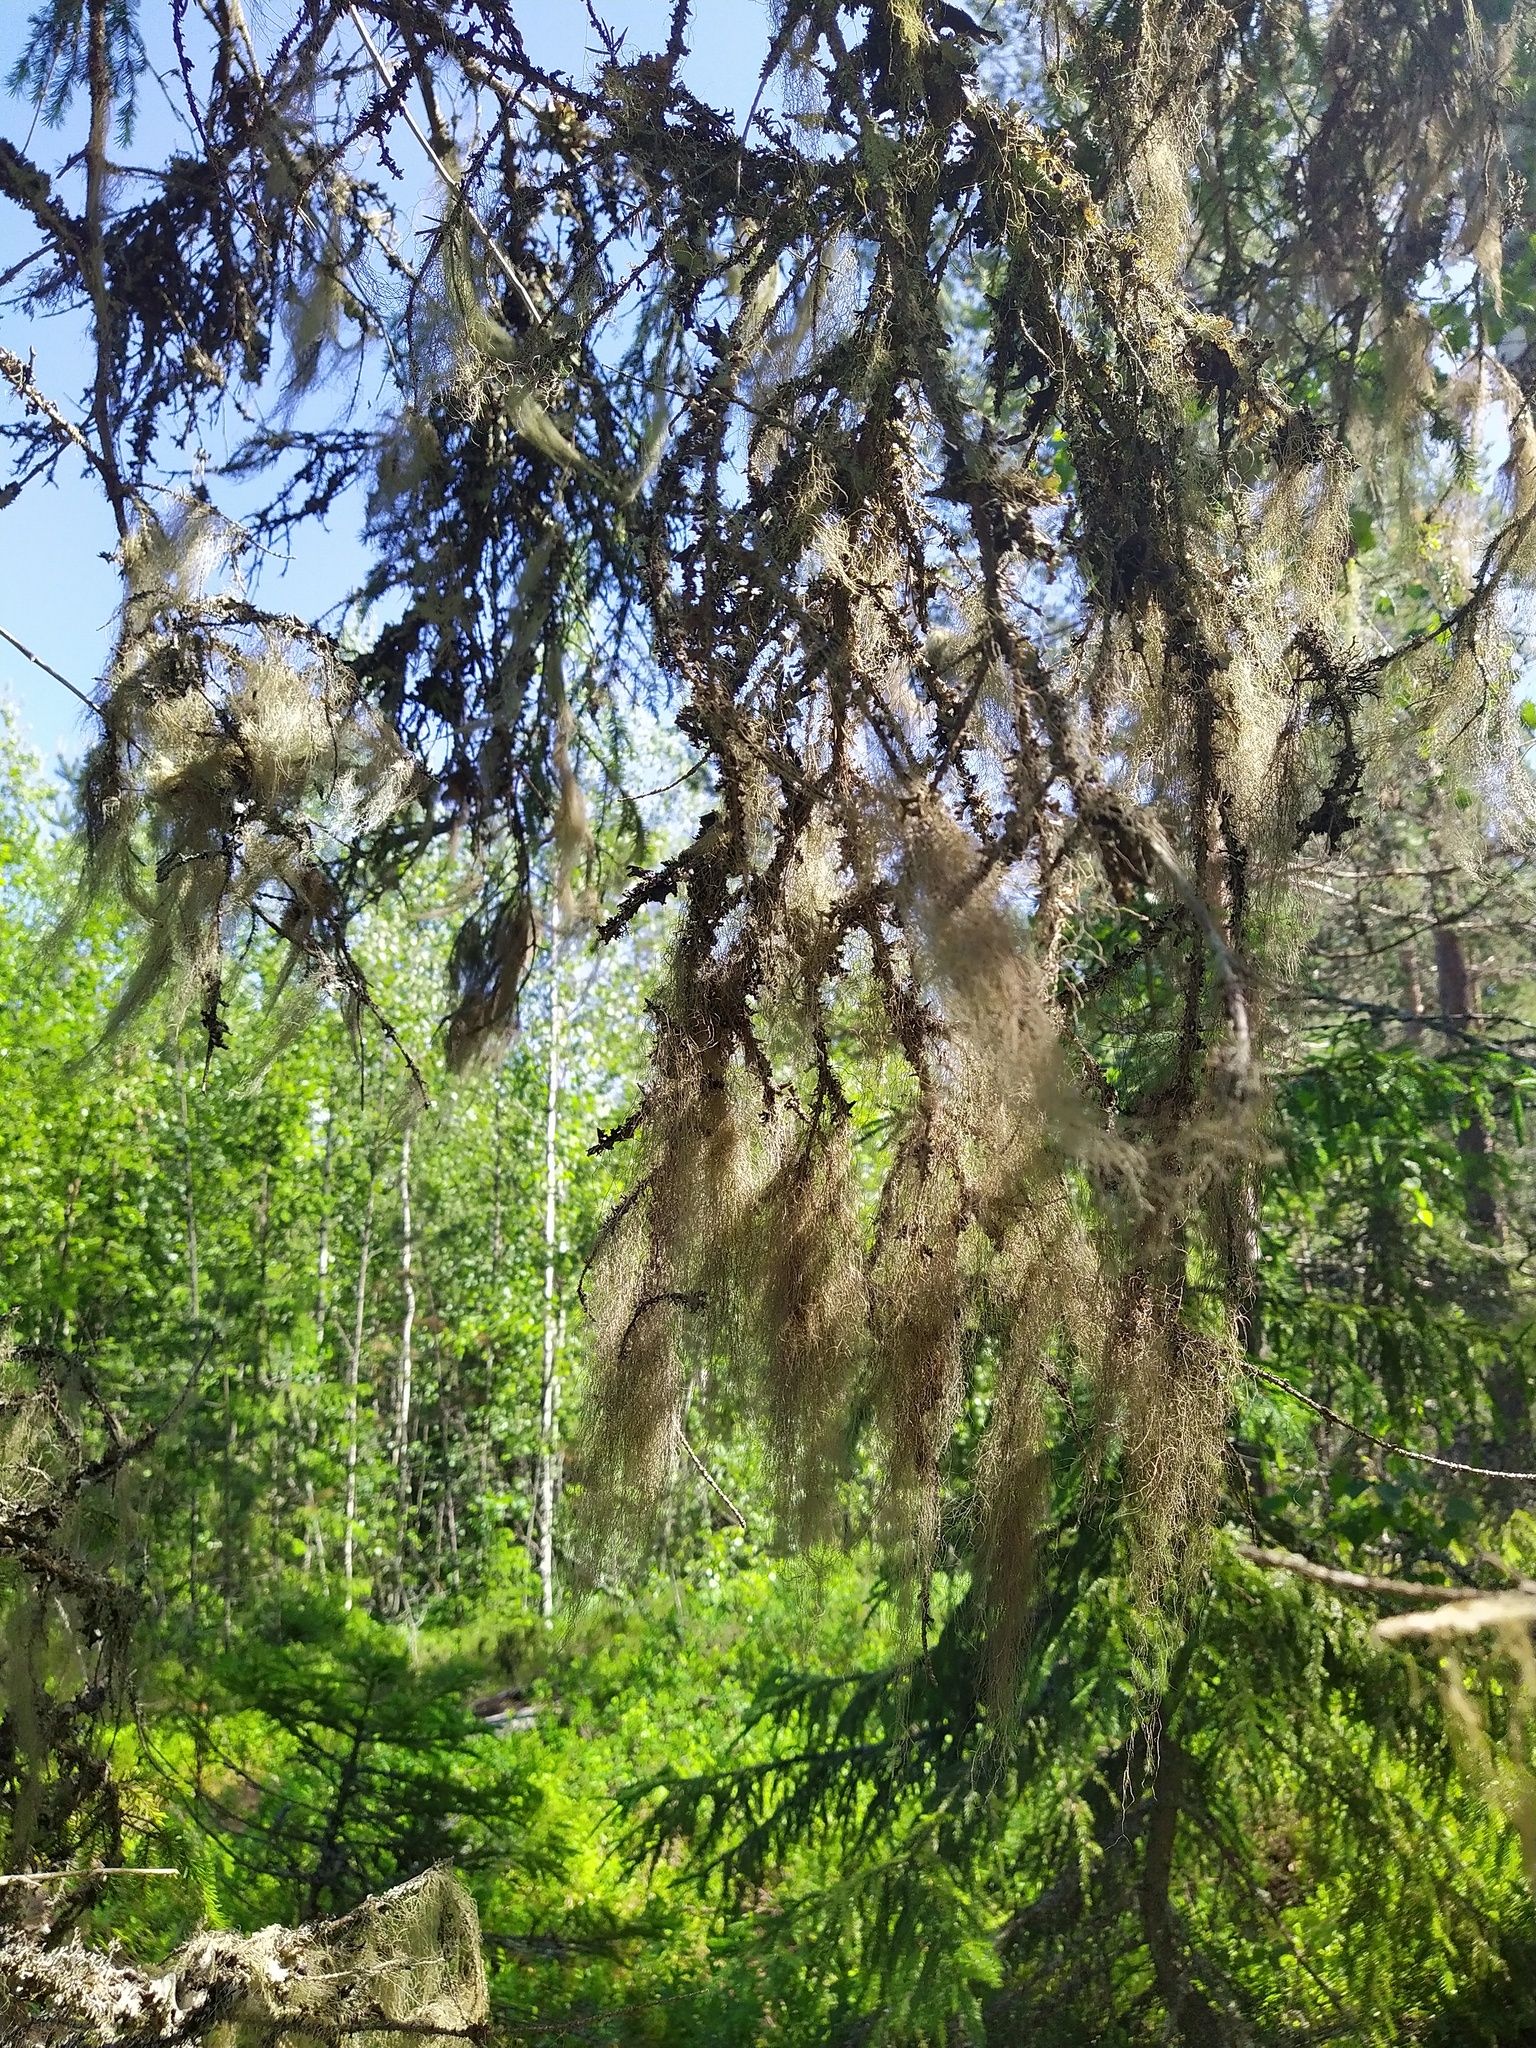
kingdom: Fungi
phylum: Ascomycota
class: Lecanoromycetes
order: Lecanorales
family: Parmeliaceae
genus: Bryoria
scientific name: Bryoria fuscescens
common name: Pale-footed horsehair lichen
